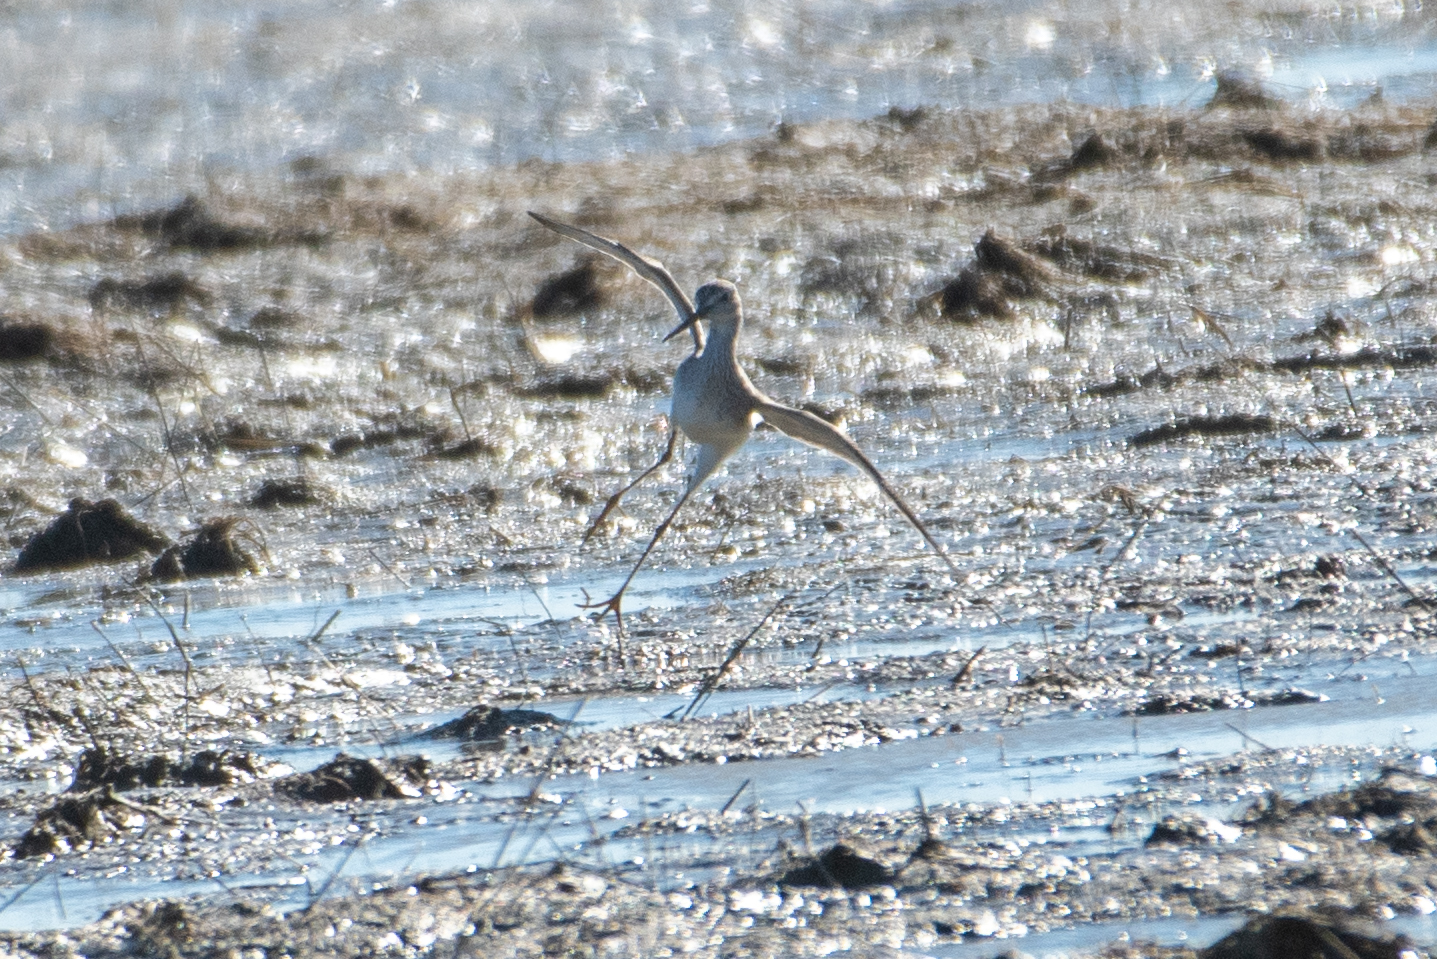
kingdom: Animalia
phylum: Chordata
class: Aves
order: Charadriiformes
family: Scolopacidae
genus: Tringa
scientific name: Tringa melanoleuca
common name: Greater yellowlegs
